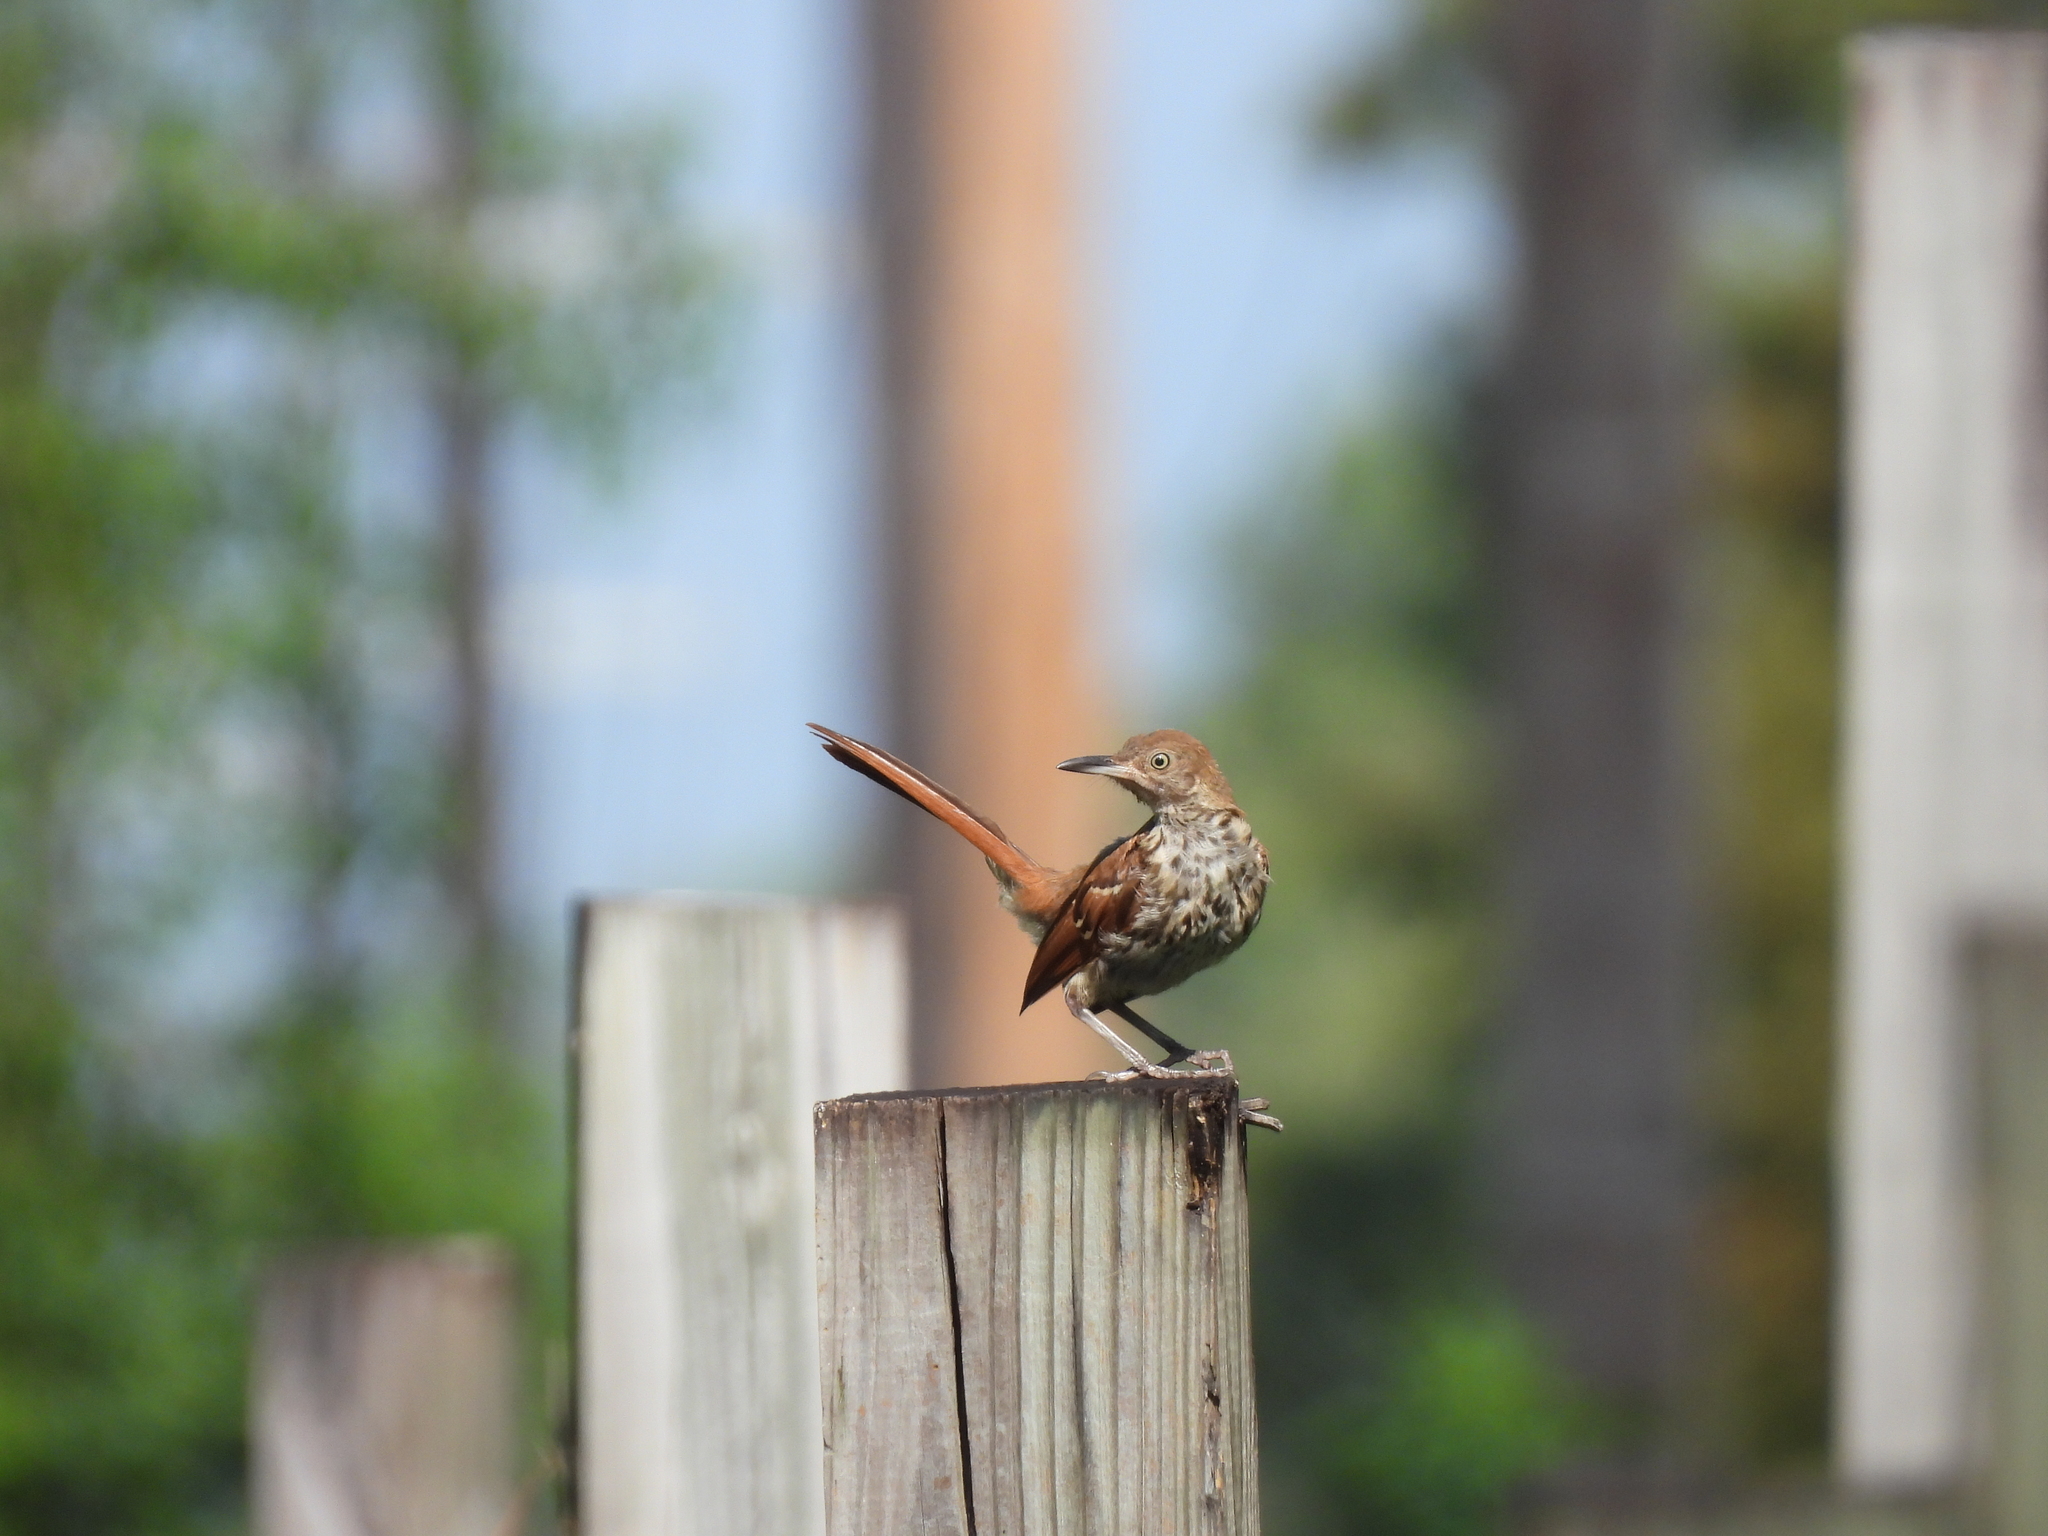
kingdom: Animalia
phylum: Chordata
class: Aves
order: Passeriformes
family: Mimidae
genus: Toxostoma
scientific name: Toxostoma rufum
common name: Brown thrasher
